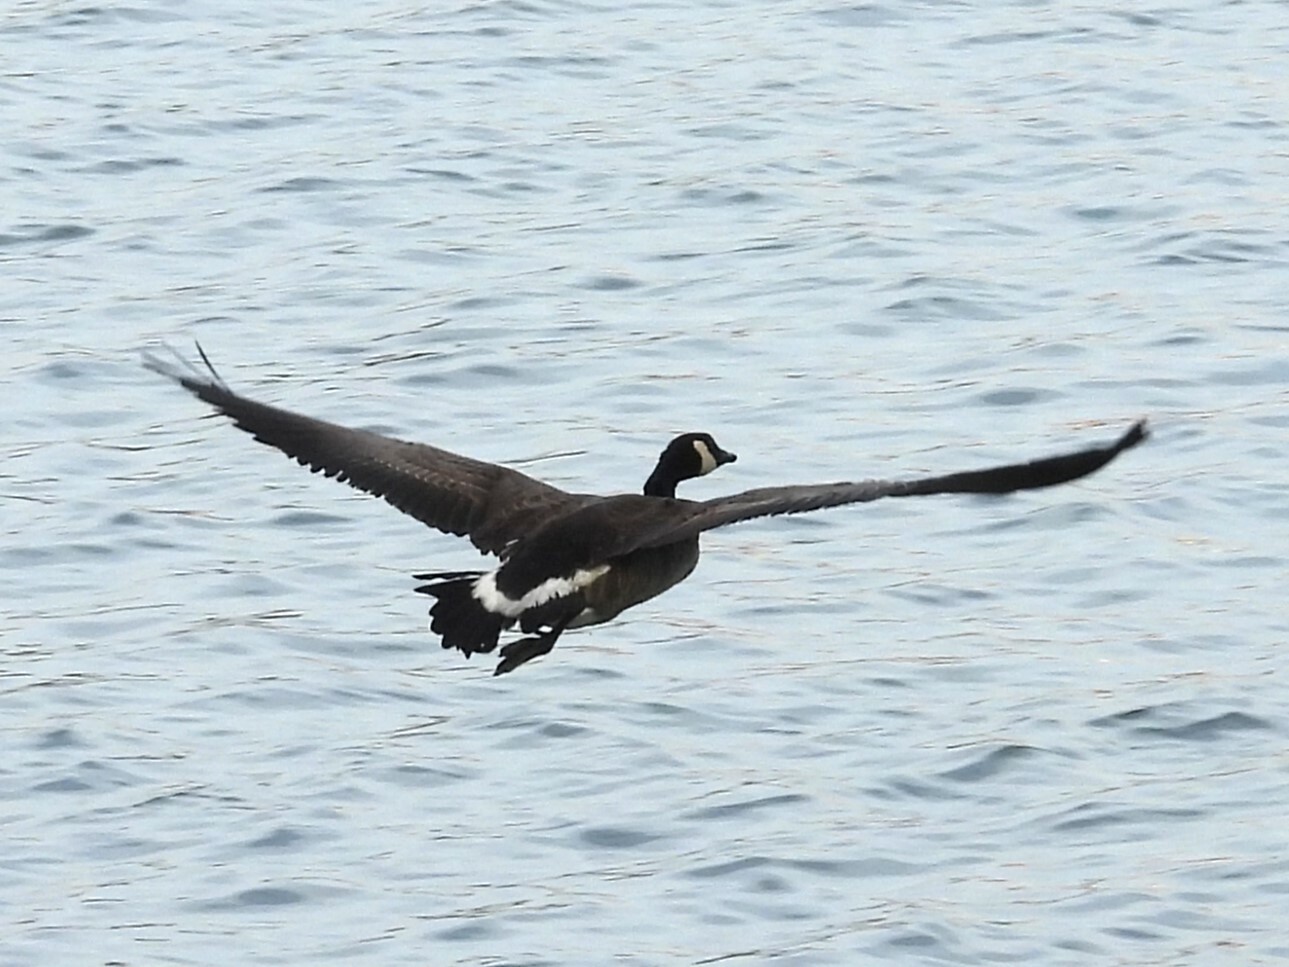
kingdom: Animalia
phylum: Chordata
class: Aves
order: Anseriformes
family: Anatidae
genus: Branta
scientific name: Branta canadensis
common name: Canada goose
